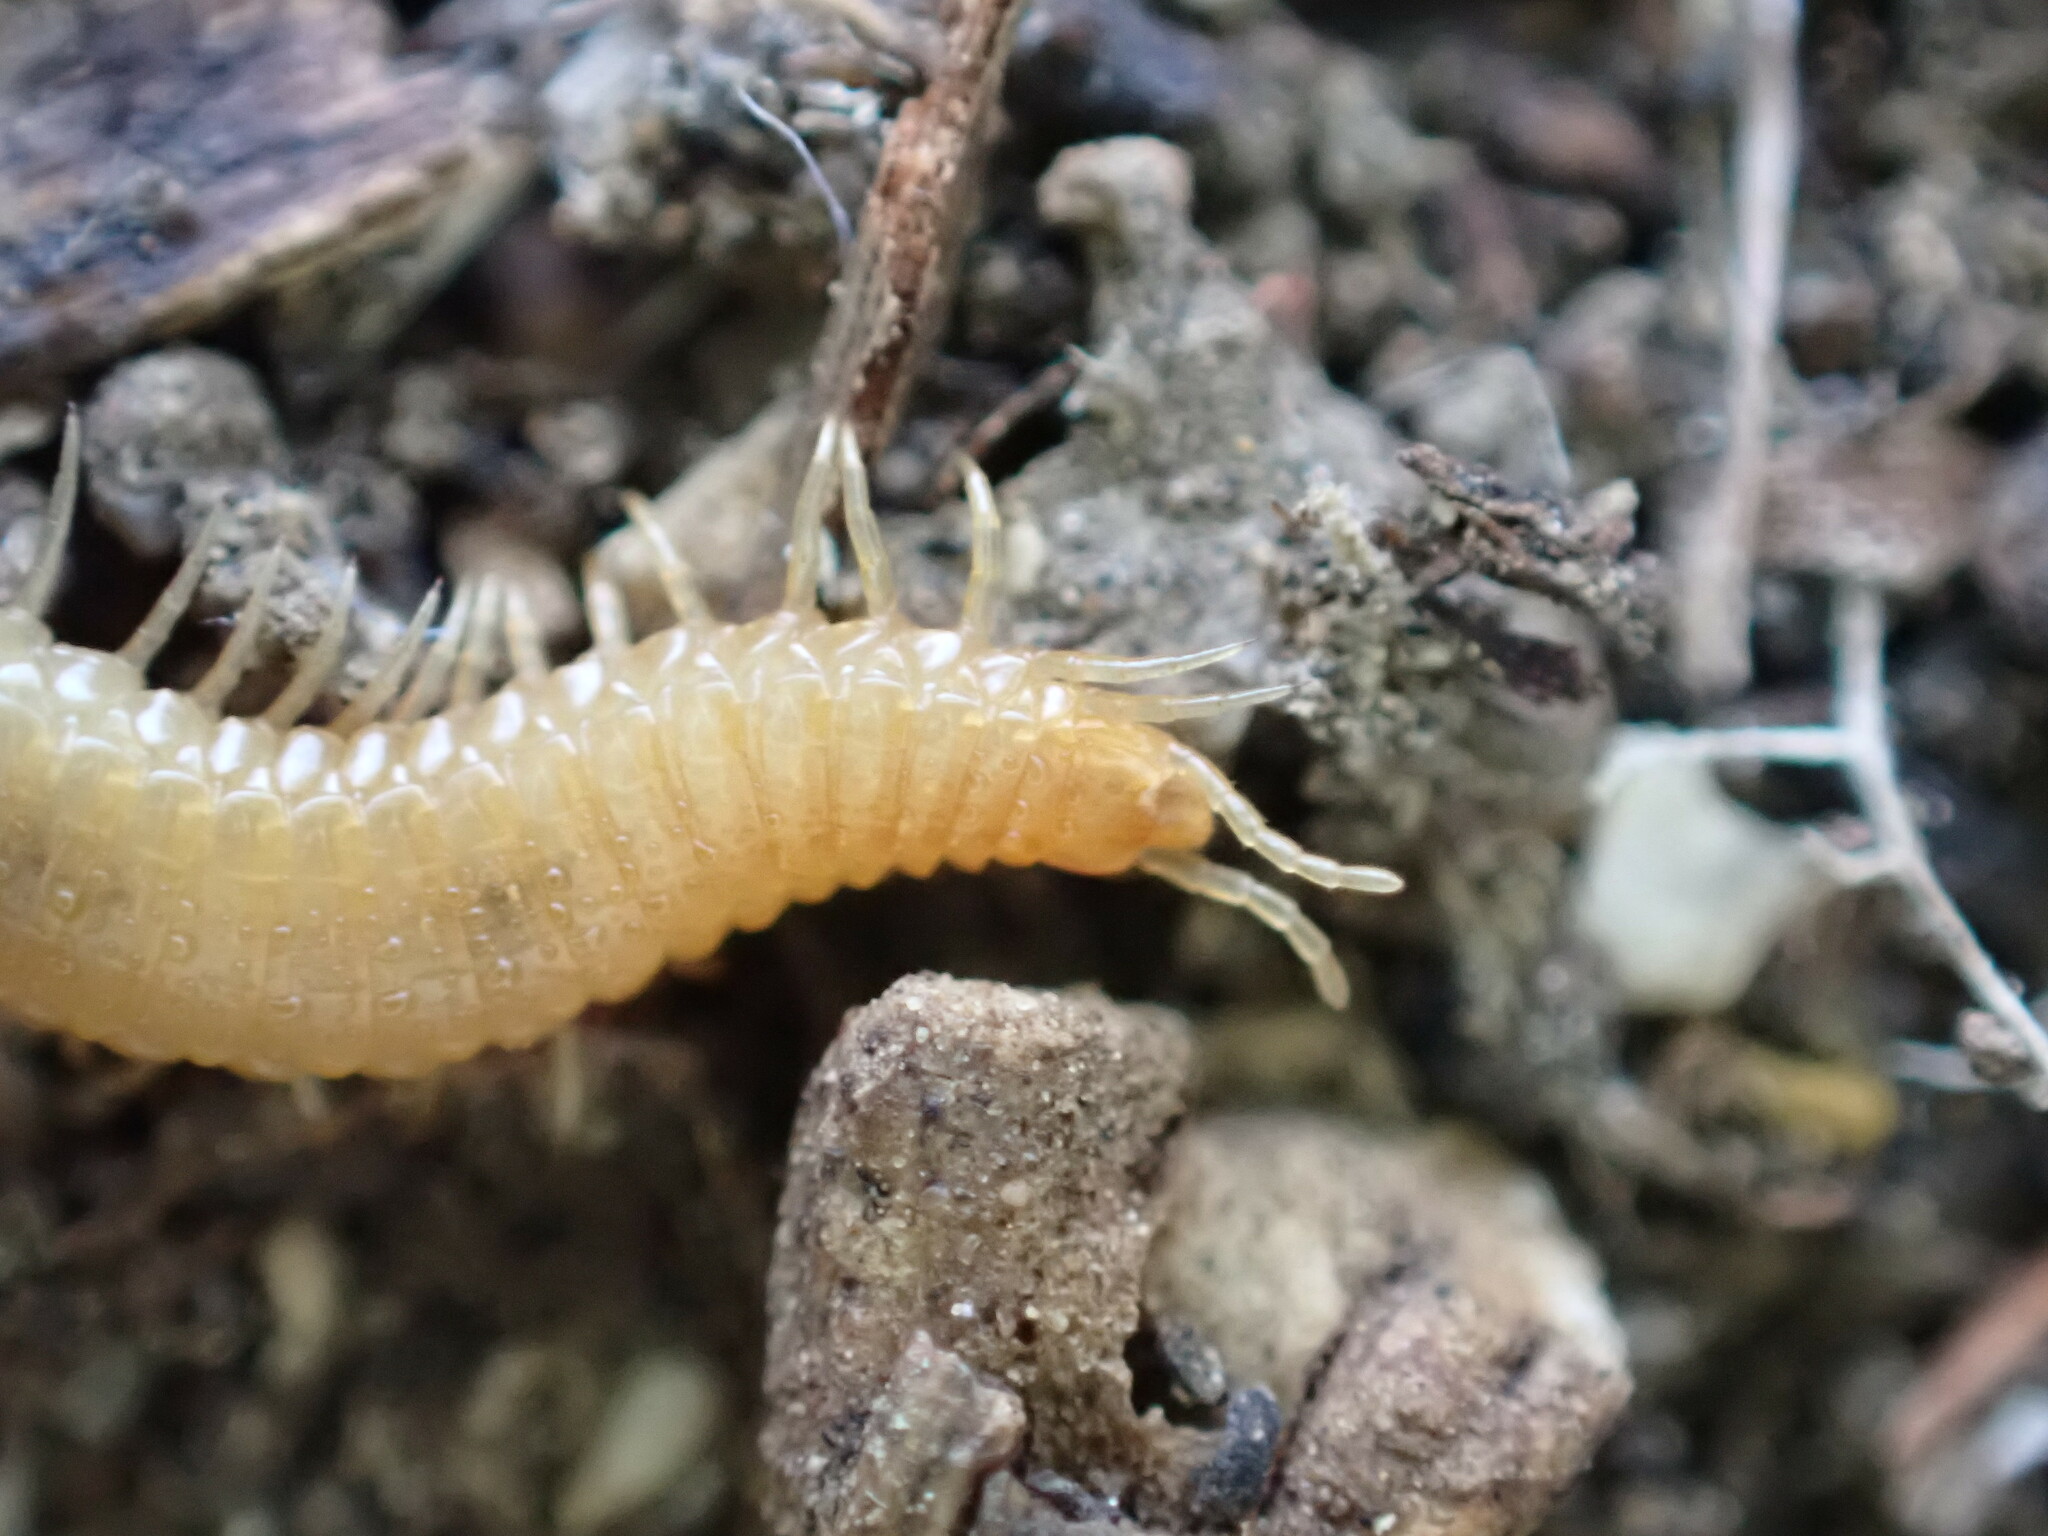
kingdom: Animalia
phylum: Arthropoda
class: Chilopoda
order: Geophilomorpha
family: Himantariidae
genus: Stigmatogaster
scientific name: Stigmatogaster gracilis
